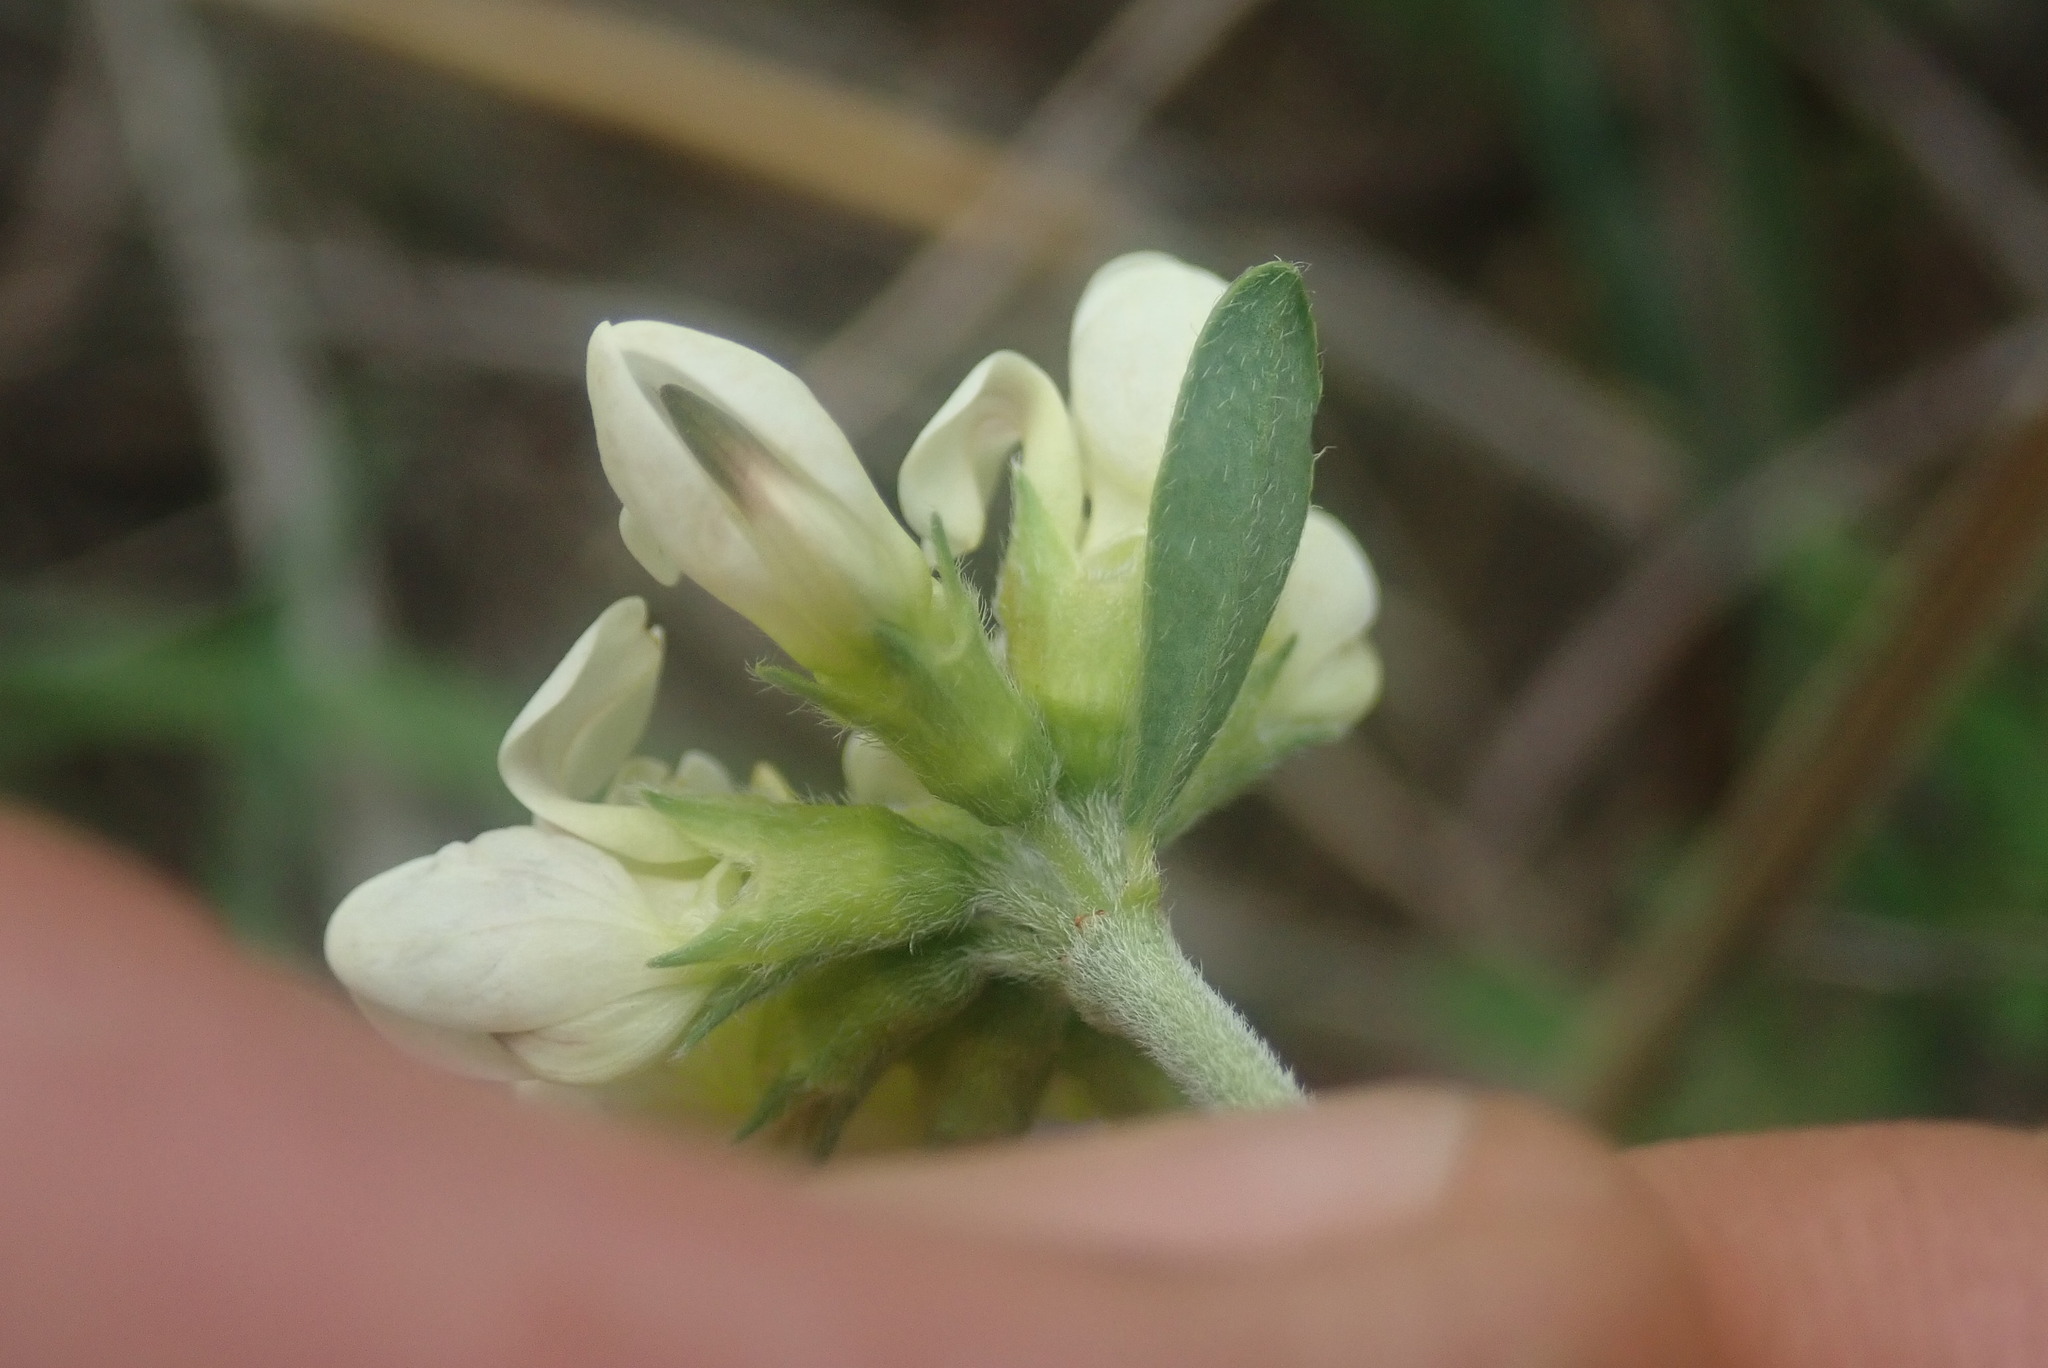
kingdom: Plantae
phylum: Tracheophyta
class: Magnoliopsida
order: Fabales
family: Fabaceae
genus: Lotus
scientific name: Lotus discolor
